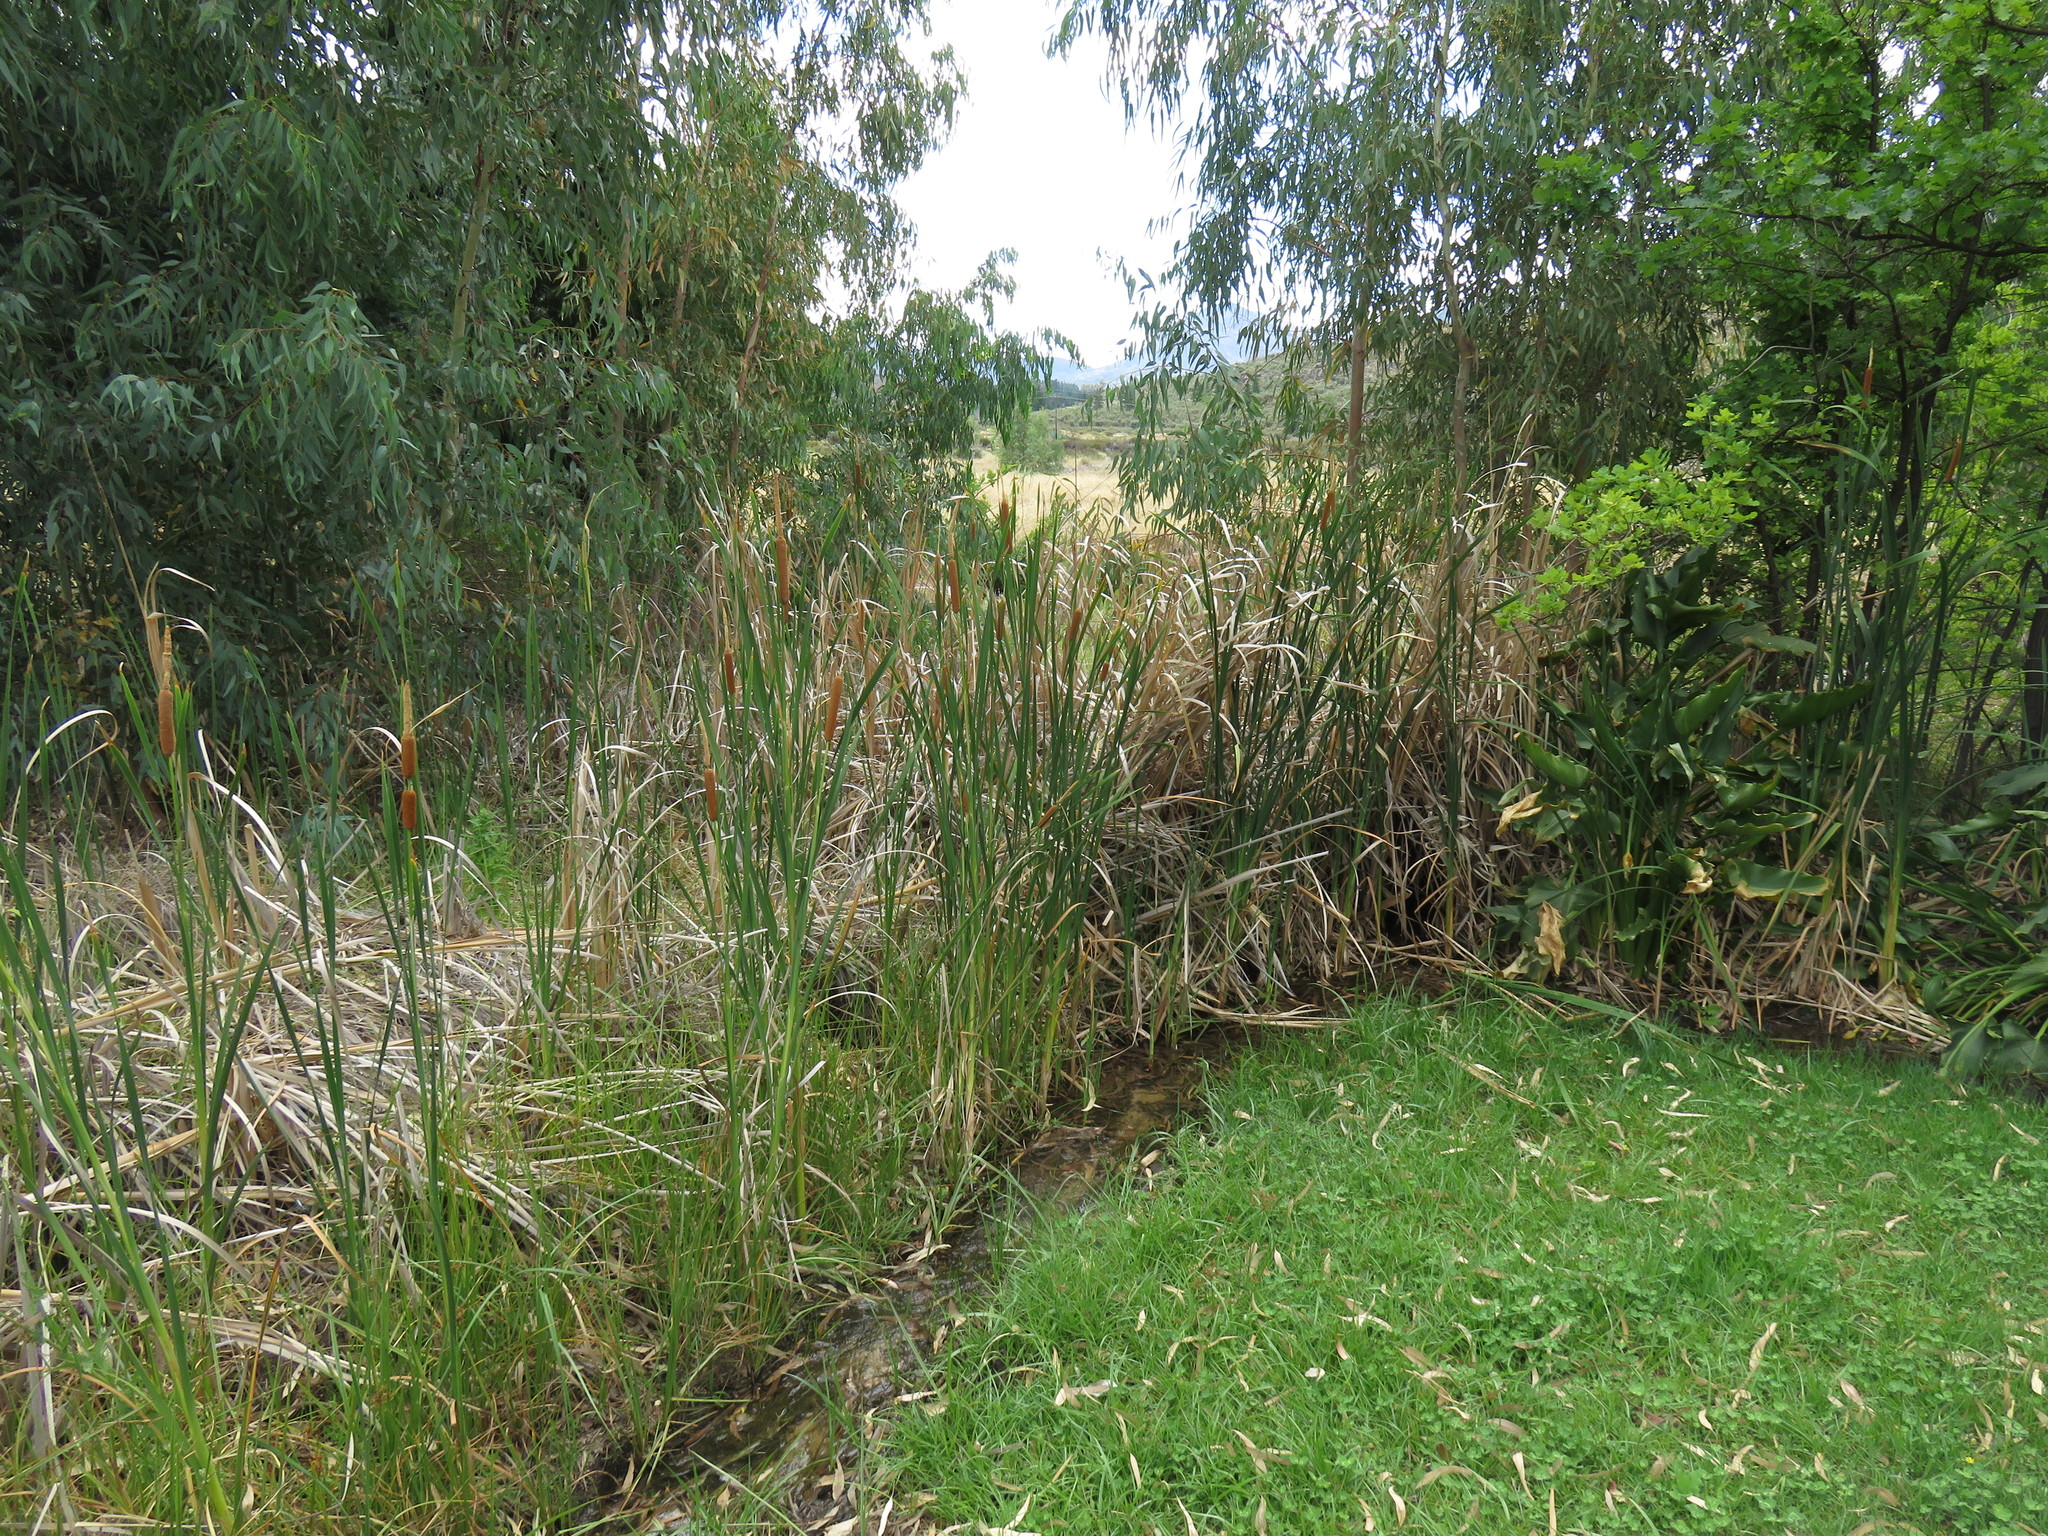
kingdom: Plantae
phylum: Tracheophyta
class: Liliopsida
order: Poales
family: Typhaceae
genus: Typha
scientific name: Typha capensis
